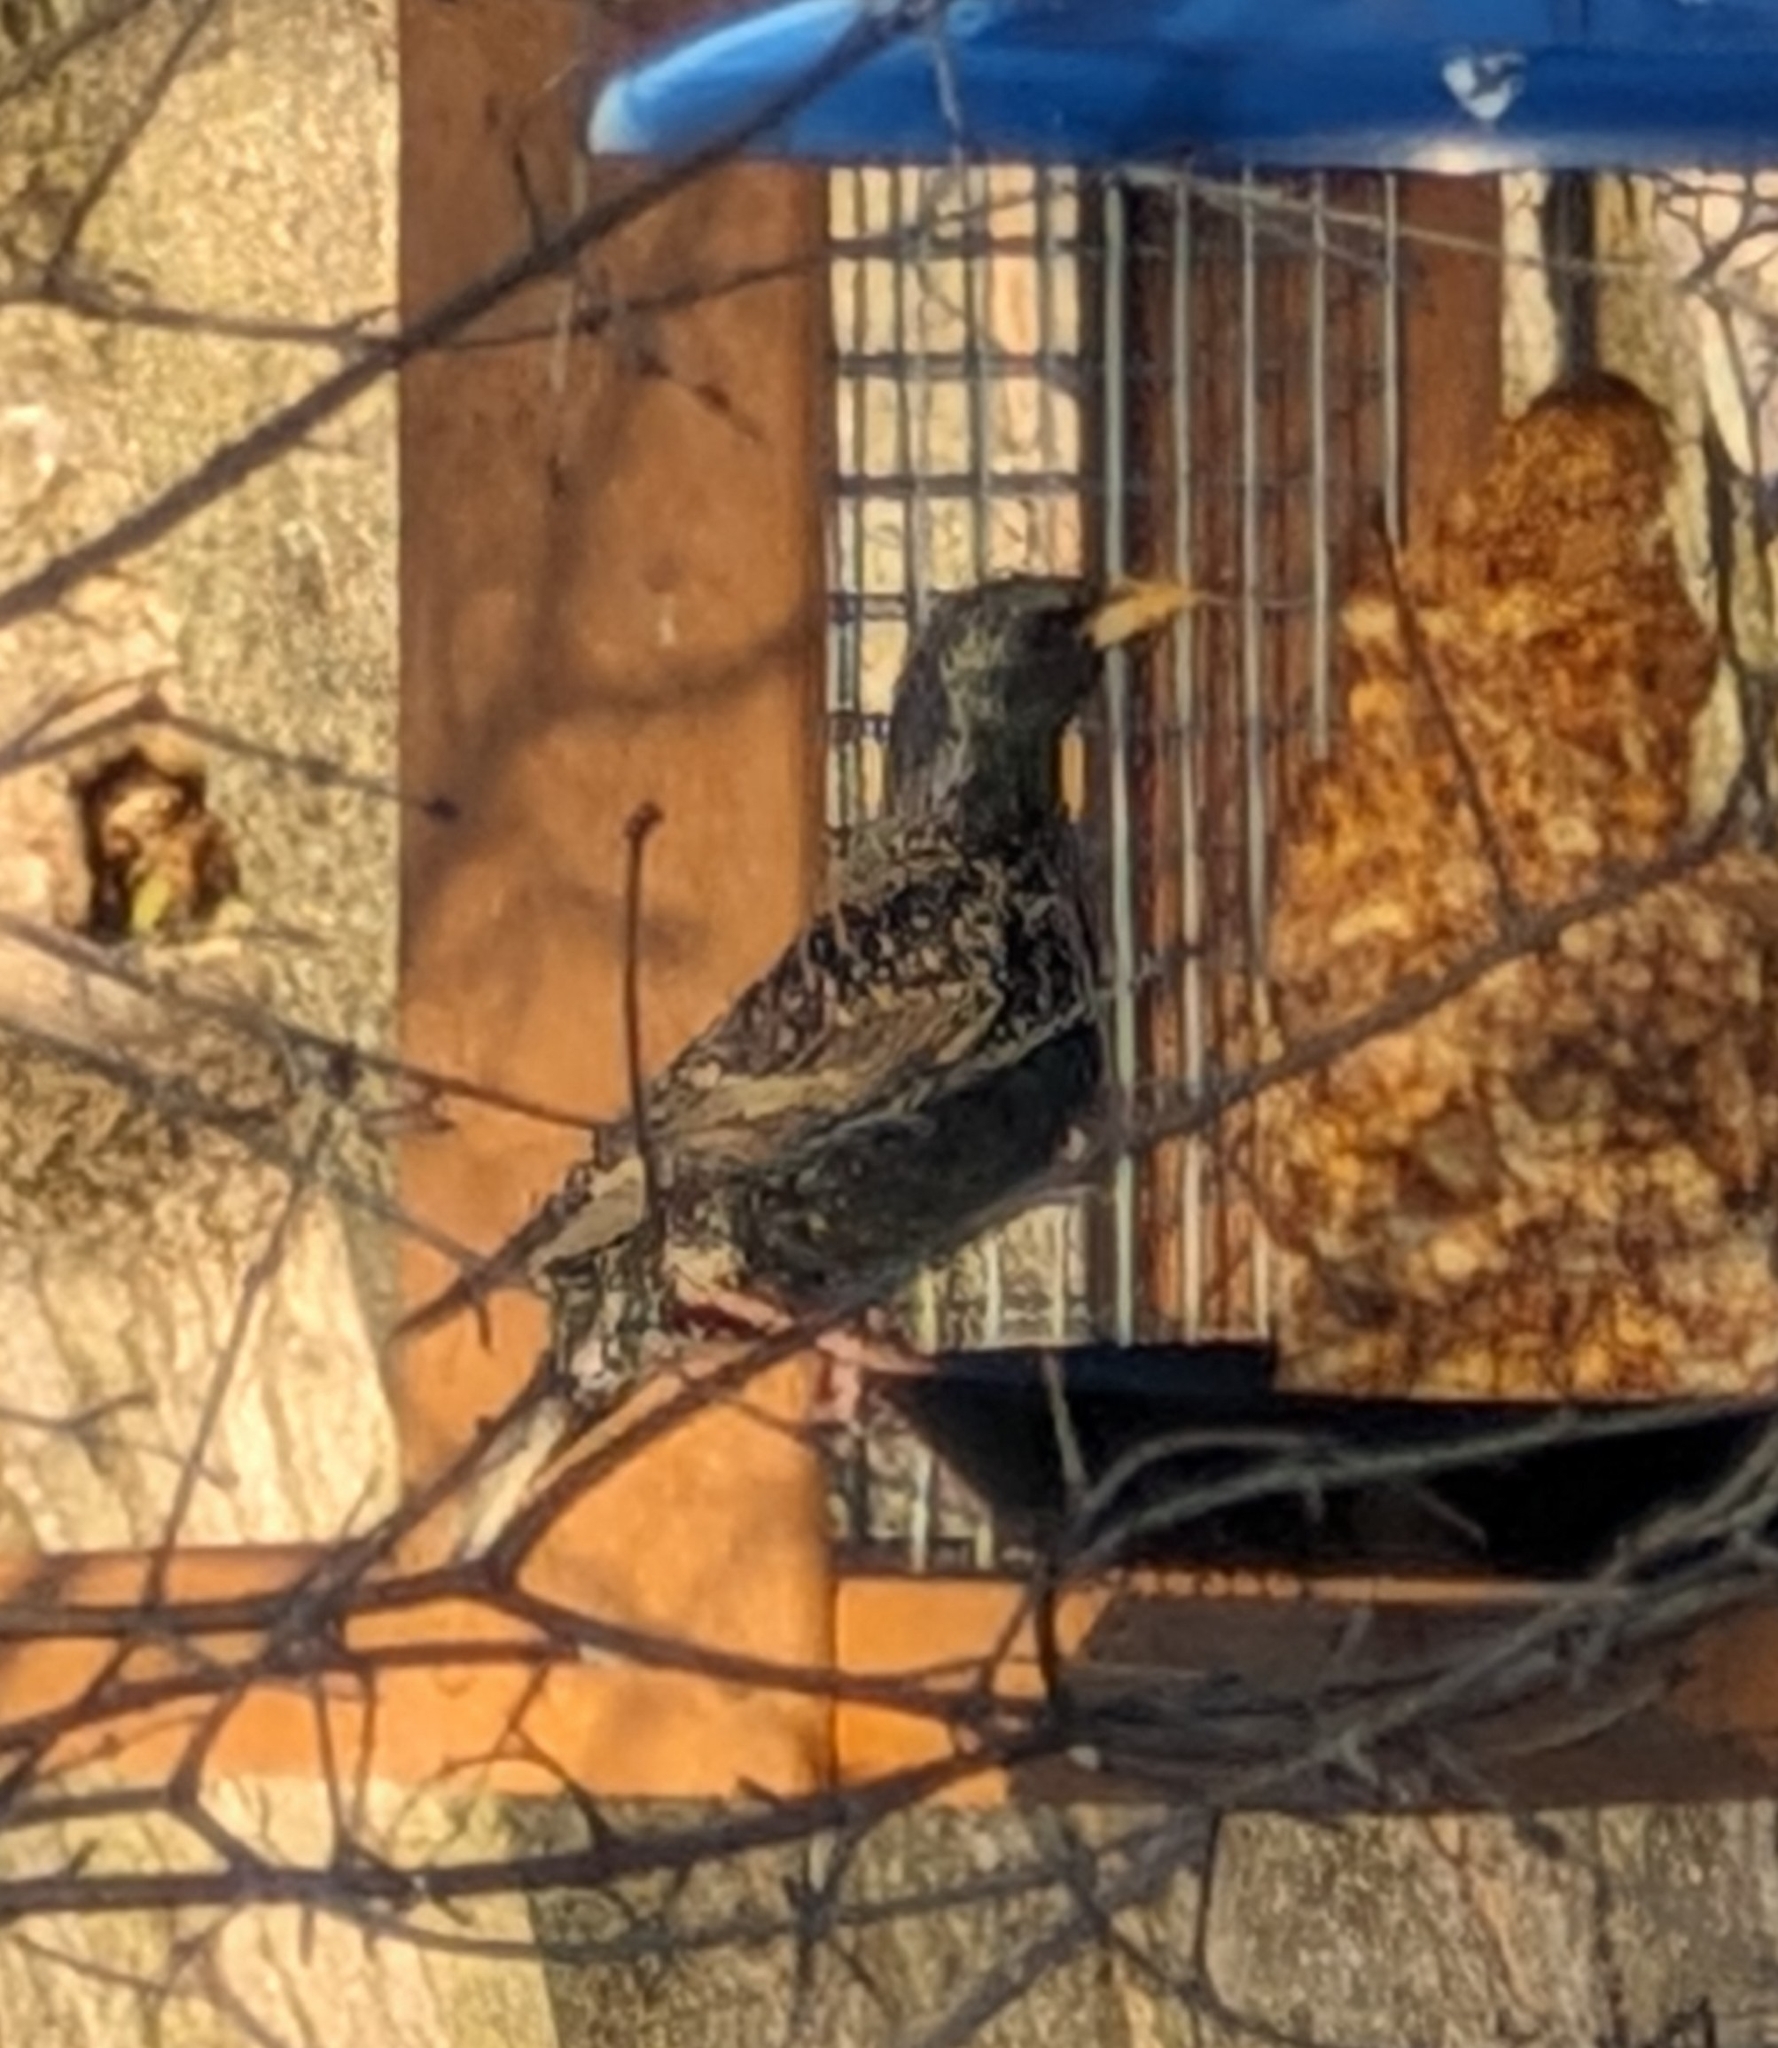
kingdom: Animalia
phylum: Chordata
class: Aves
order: Passeriformes
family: Sturnidae
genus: Sturnus
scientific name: Sturnus vulgaris
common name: Common starling
